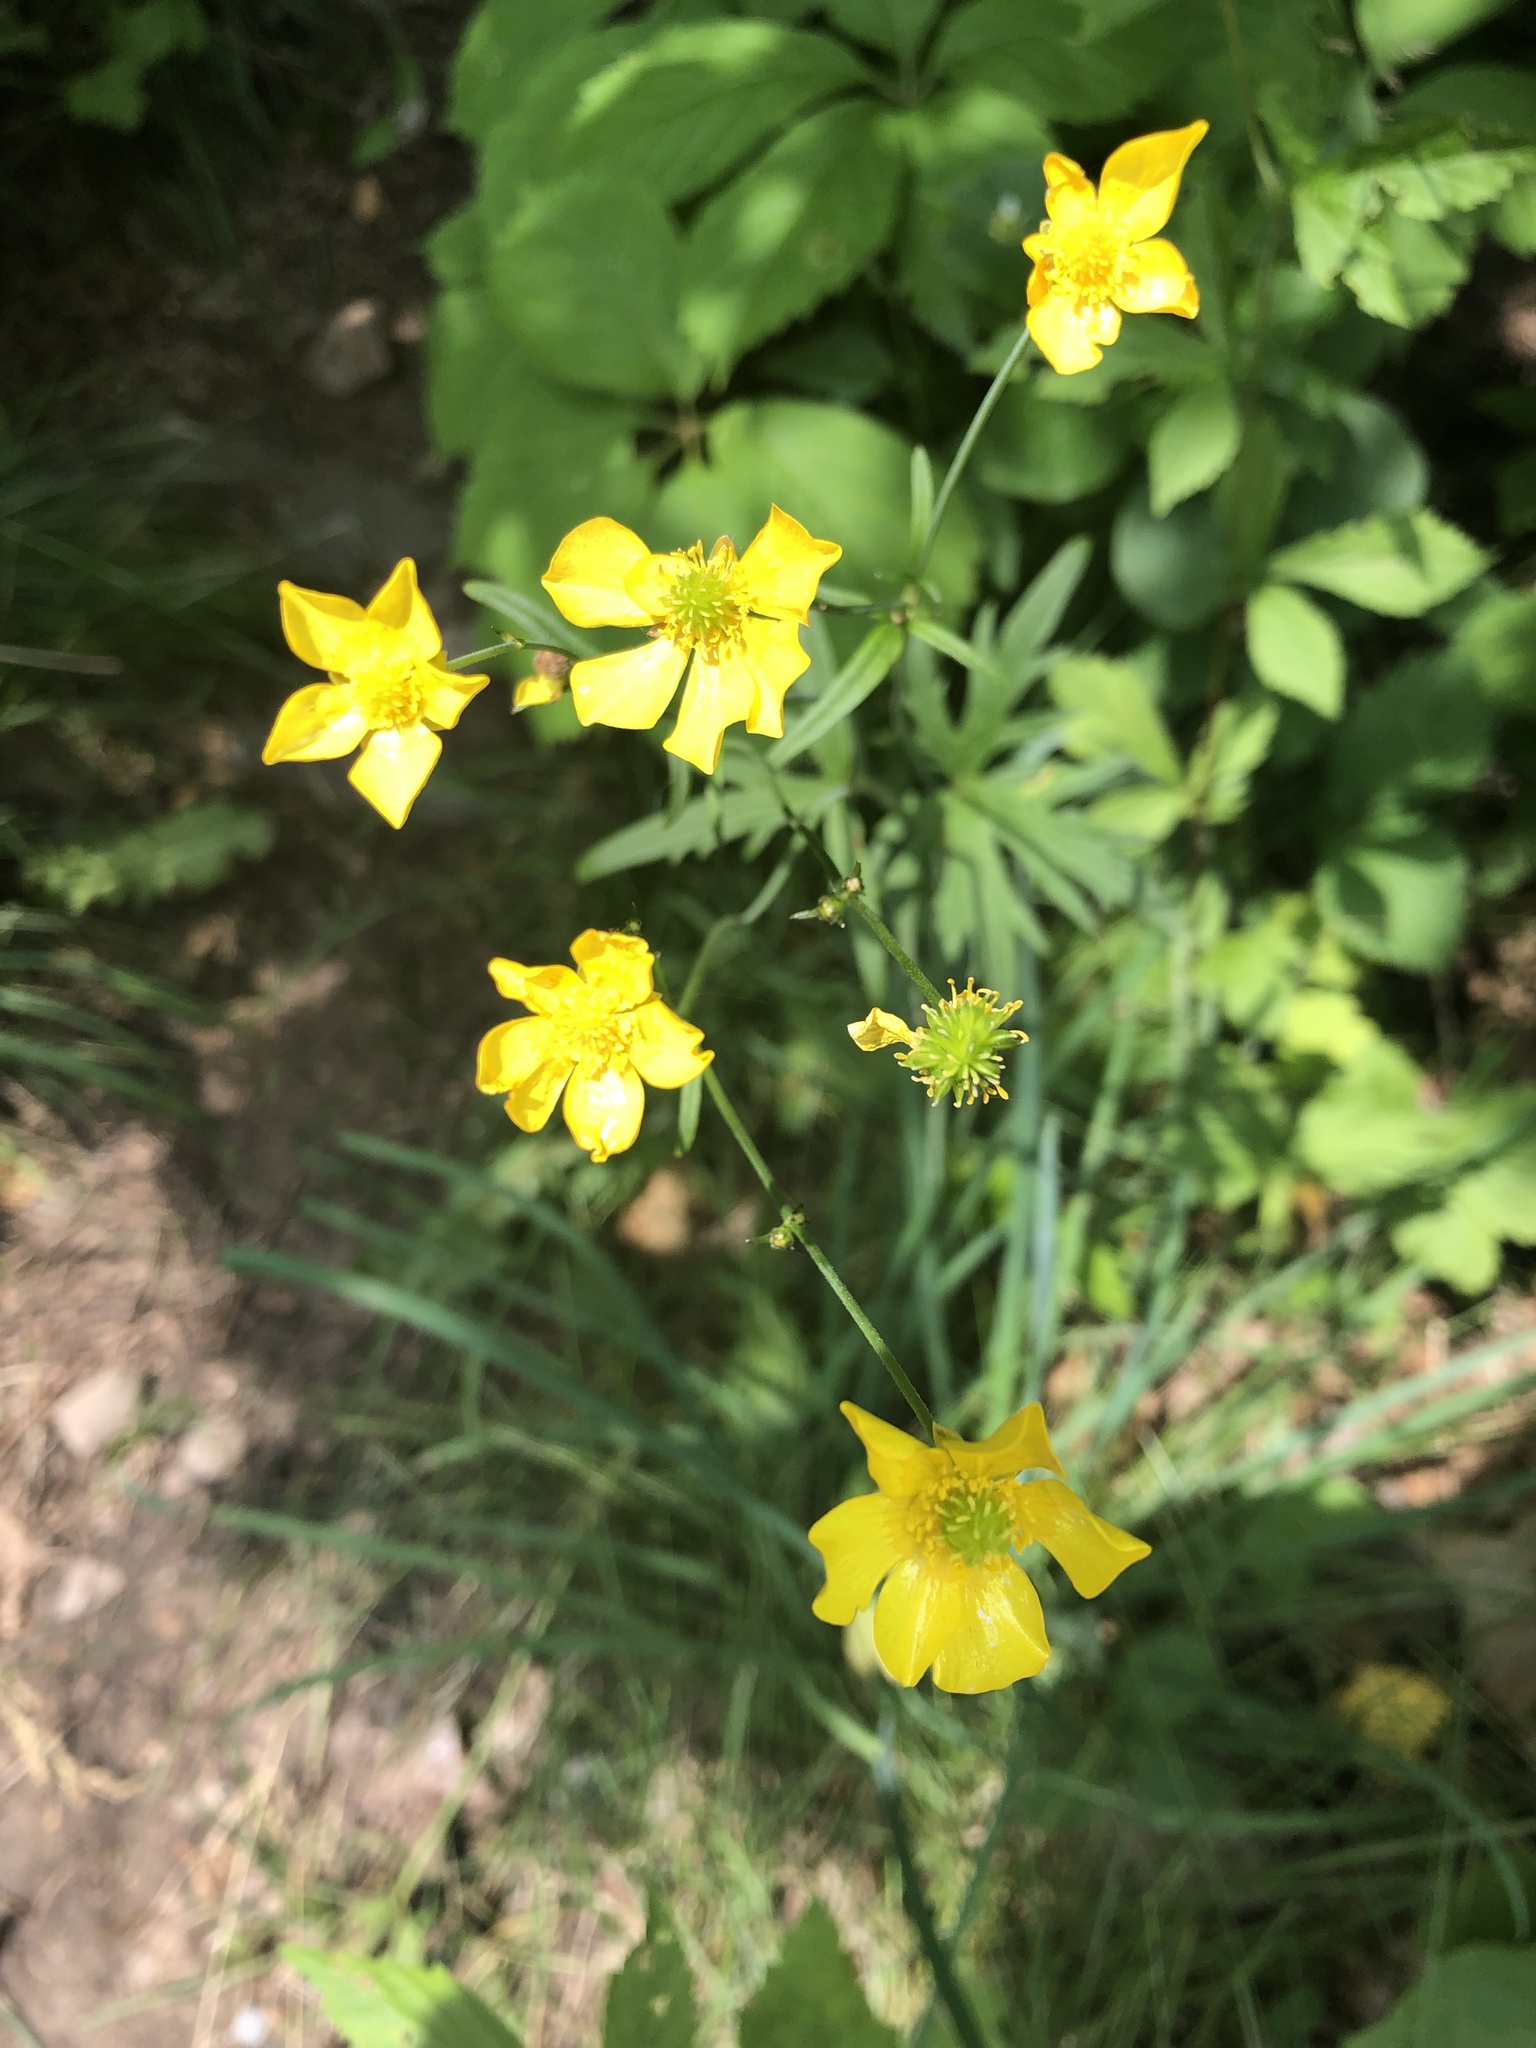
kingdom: Plantae
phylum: Tracheophyta
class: Magnoliopsida
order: Ranunculales
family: Ranunculaceae
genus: Ranunculus
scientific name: Ranunculus acris
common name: Meadow buttercup
